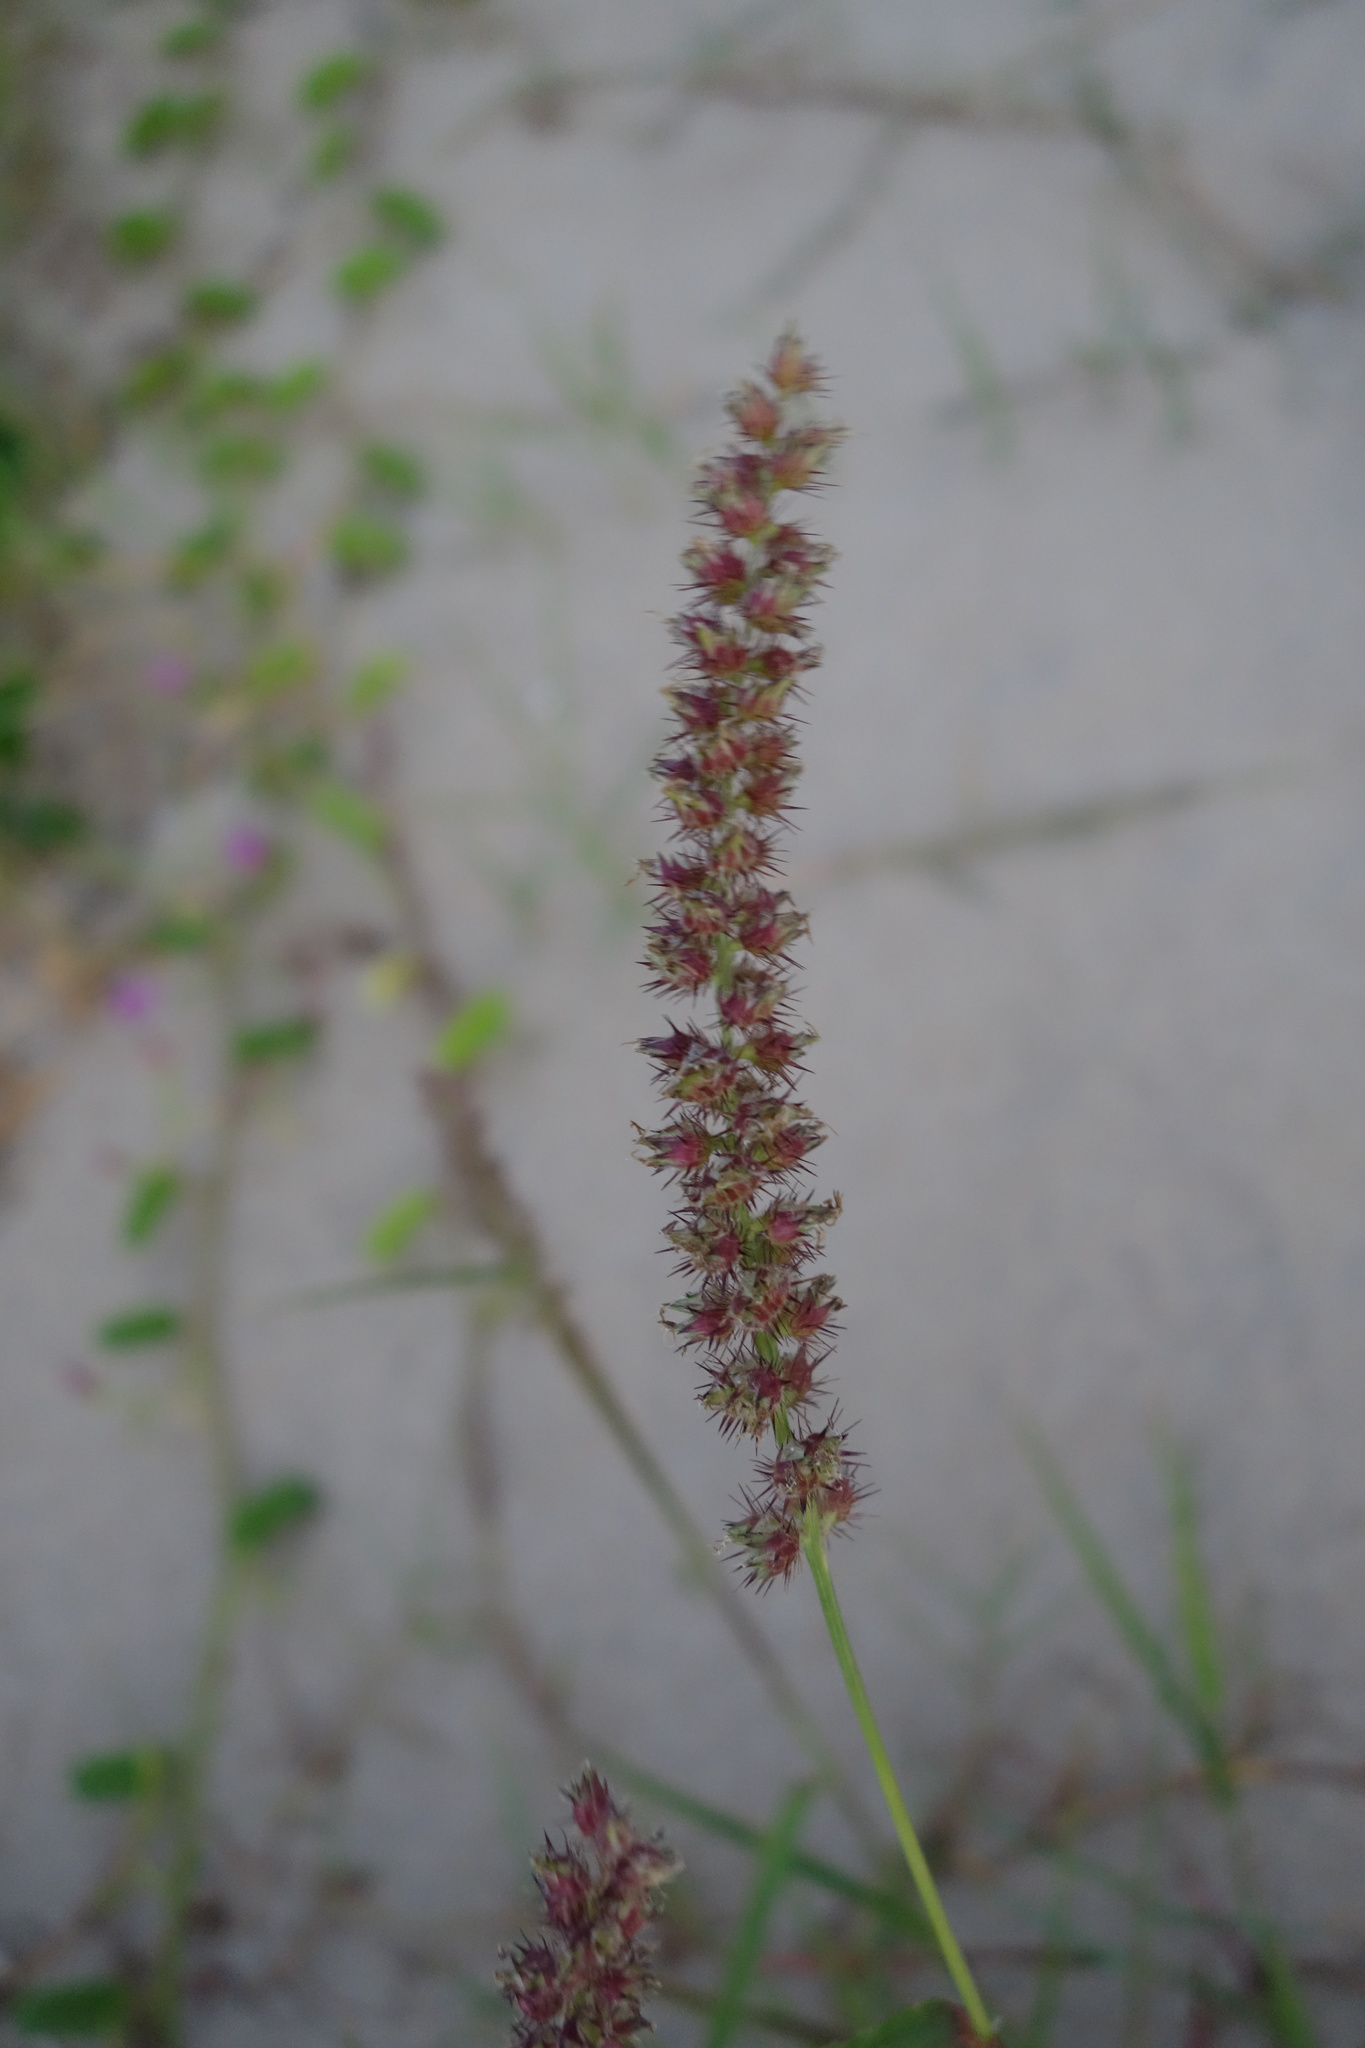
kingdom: Plantae
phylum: Tracheophyta
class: Liliopsida
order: Poales
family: Poaceae
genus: Cenchrus
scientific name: Cenchrus echinatus
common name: Southern sandbur
